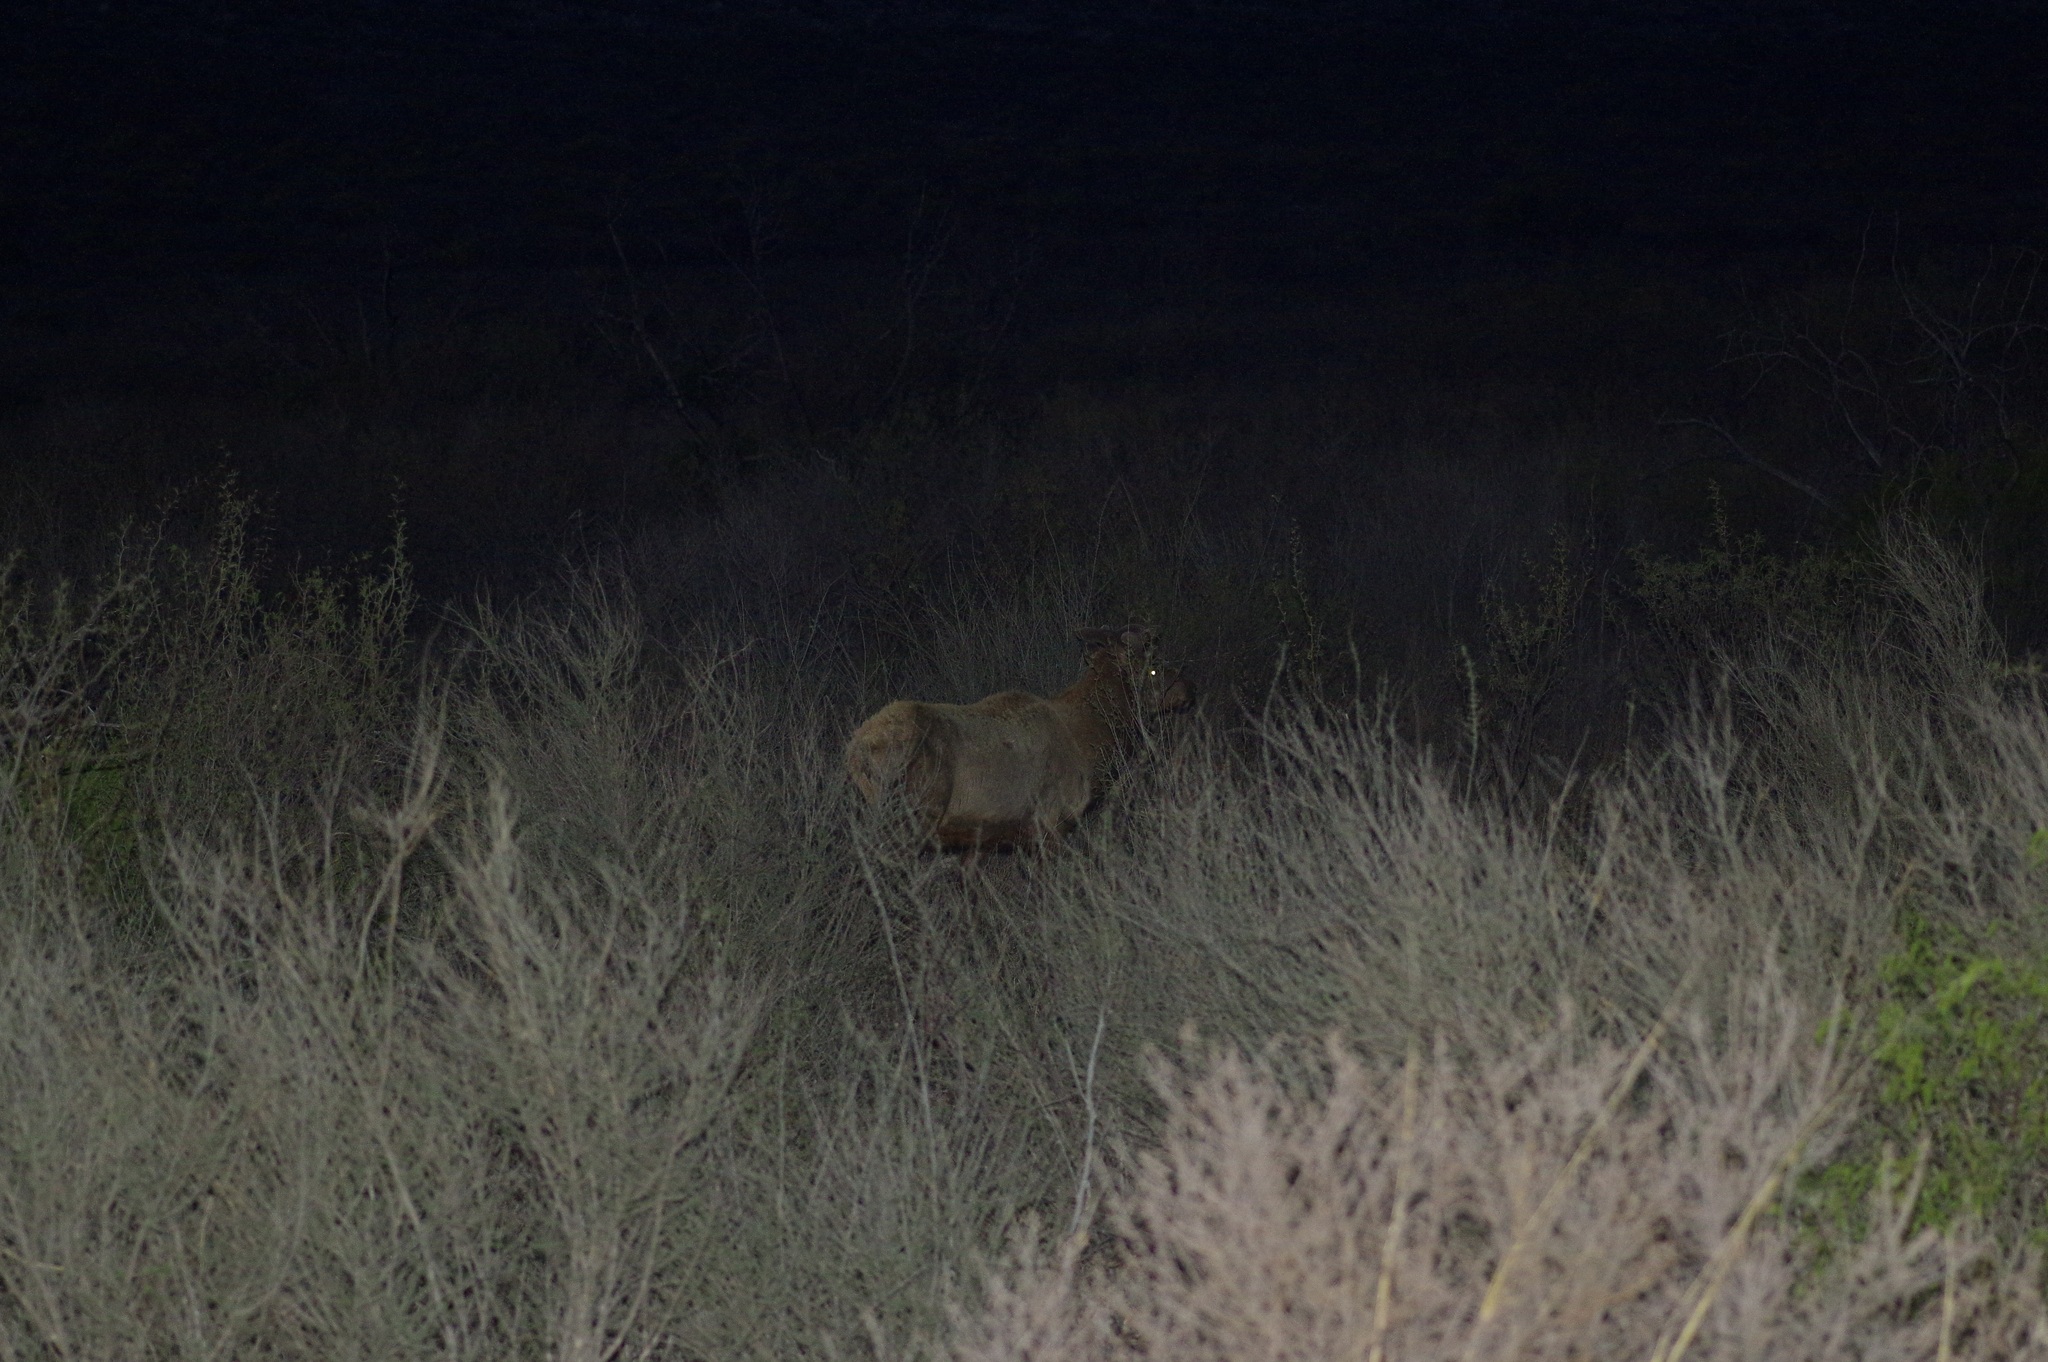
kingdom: Animalia
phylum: Chordata
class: Mammalia
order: Artiodactyla
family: Cervidae
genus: Cervus
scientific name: Cervus elaphus
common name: Red deer
